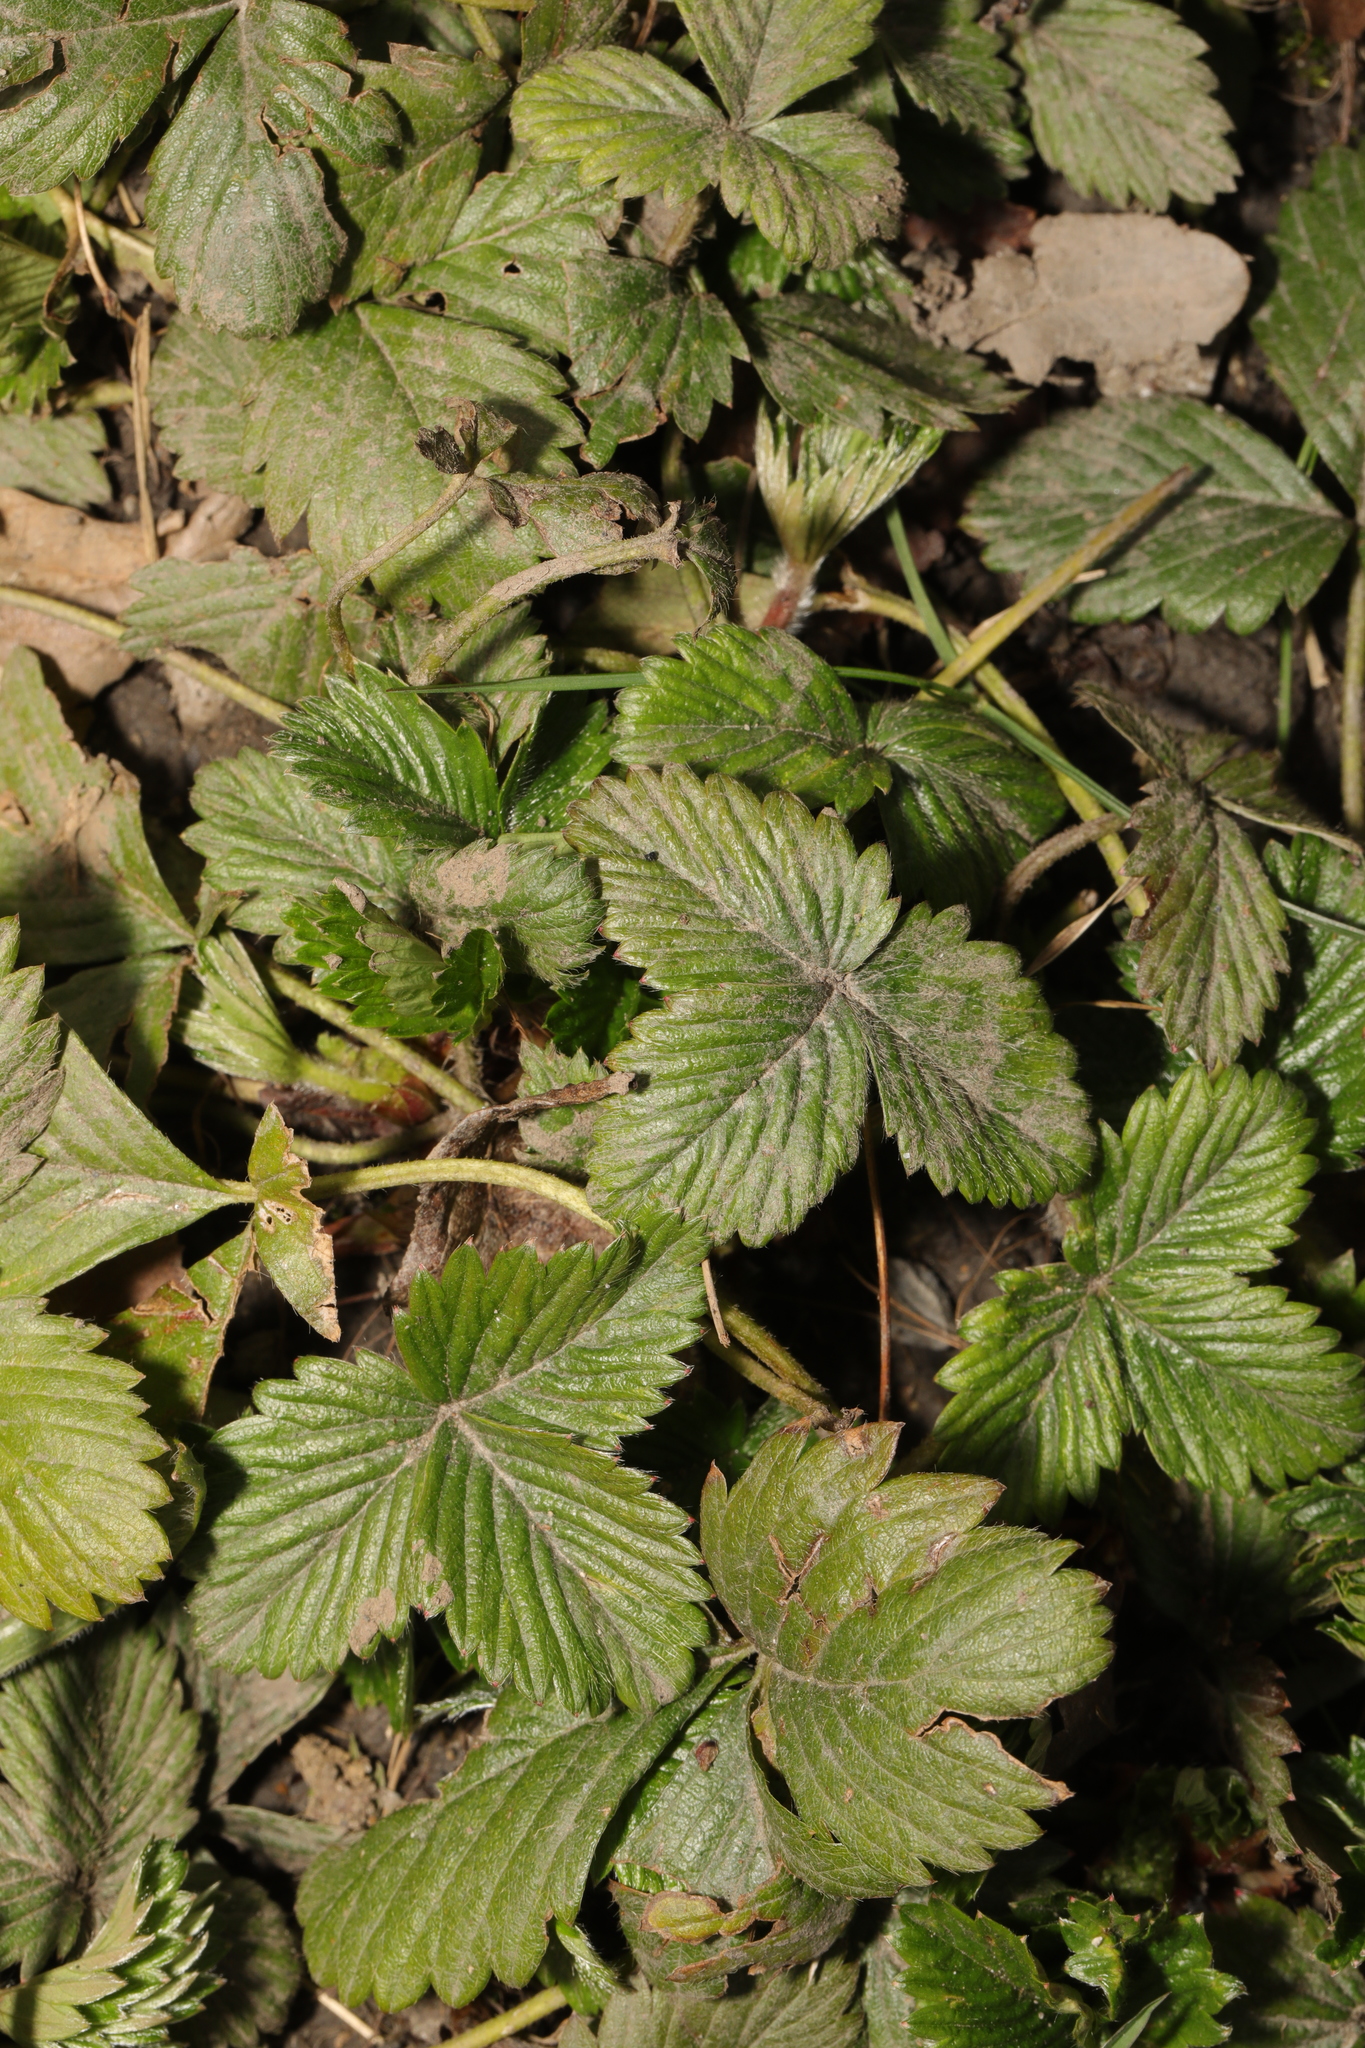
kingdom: Plantae
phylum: Tracheophyta
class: Magnoliopsida
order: Rosales
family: Rosaceae
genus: Fragaria
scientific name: Fragaria vesca
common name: Wild strawberry
